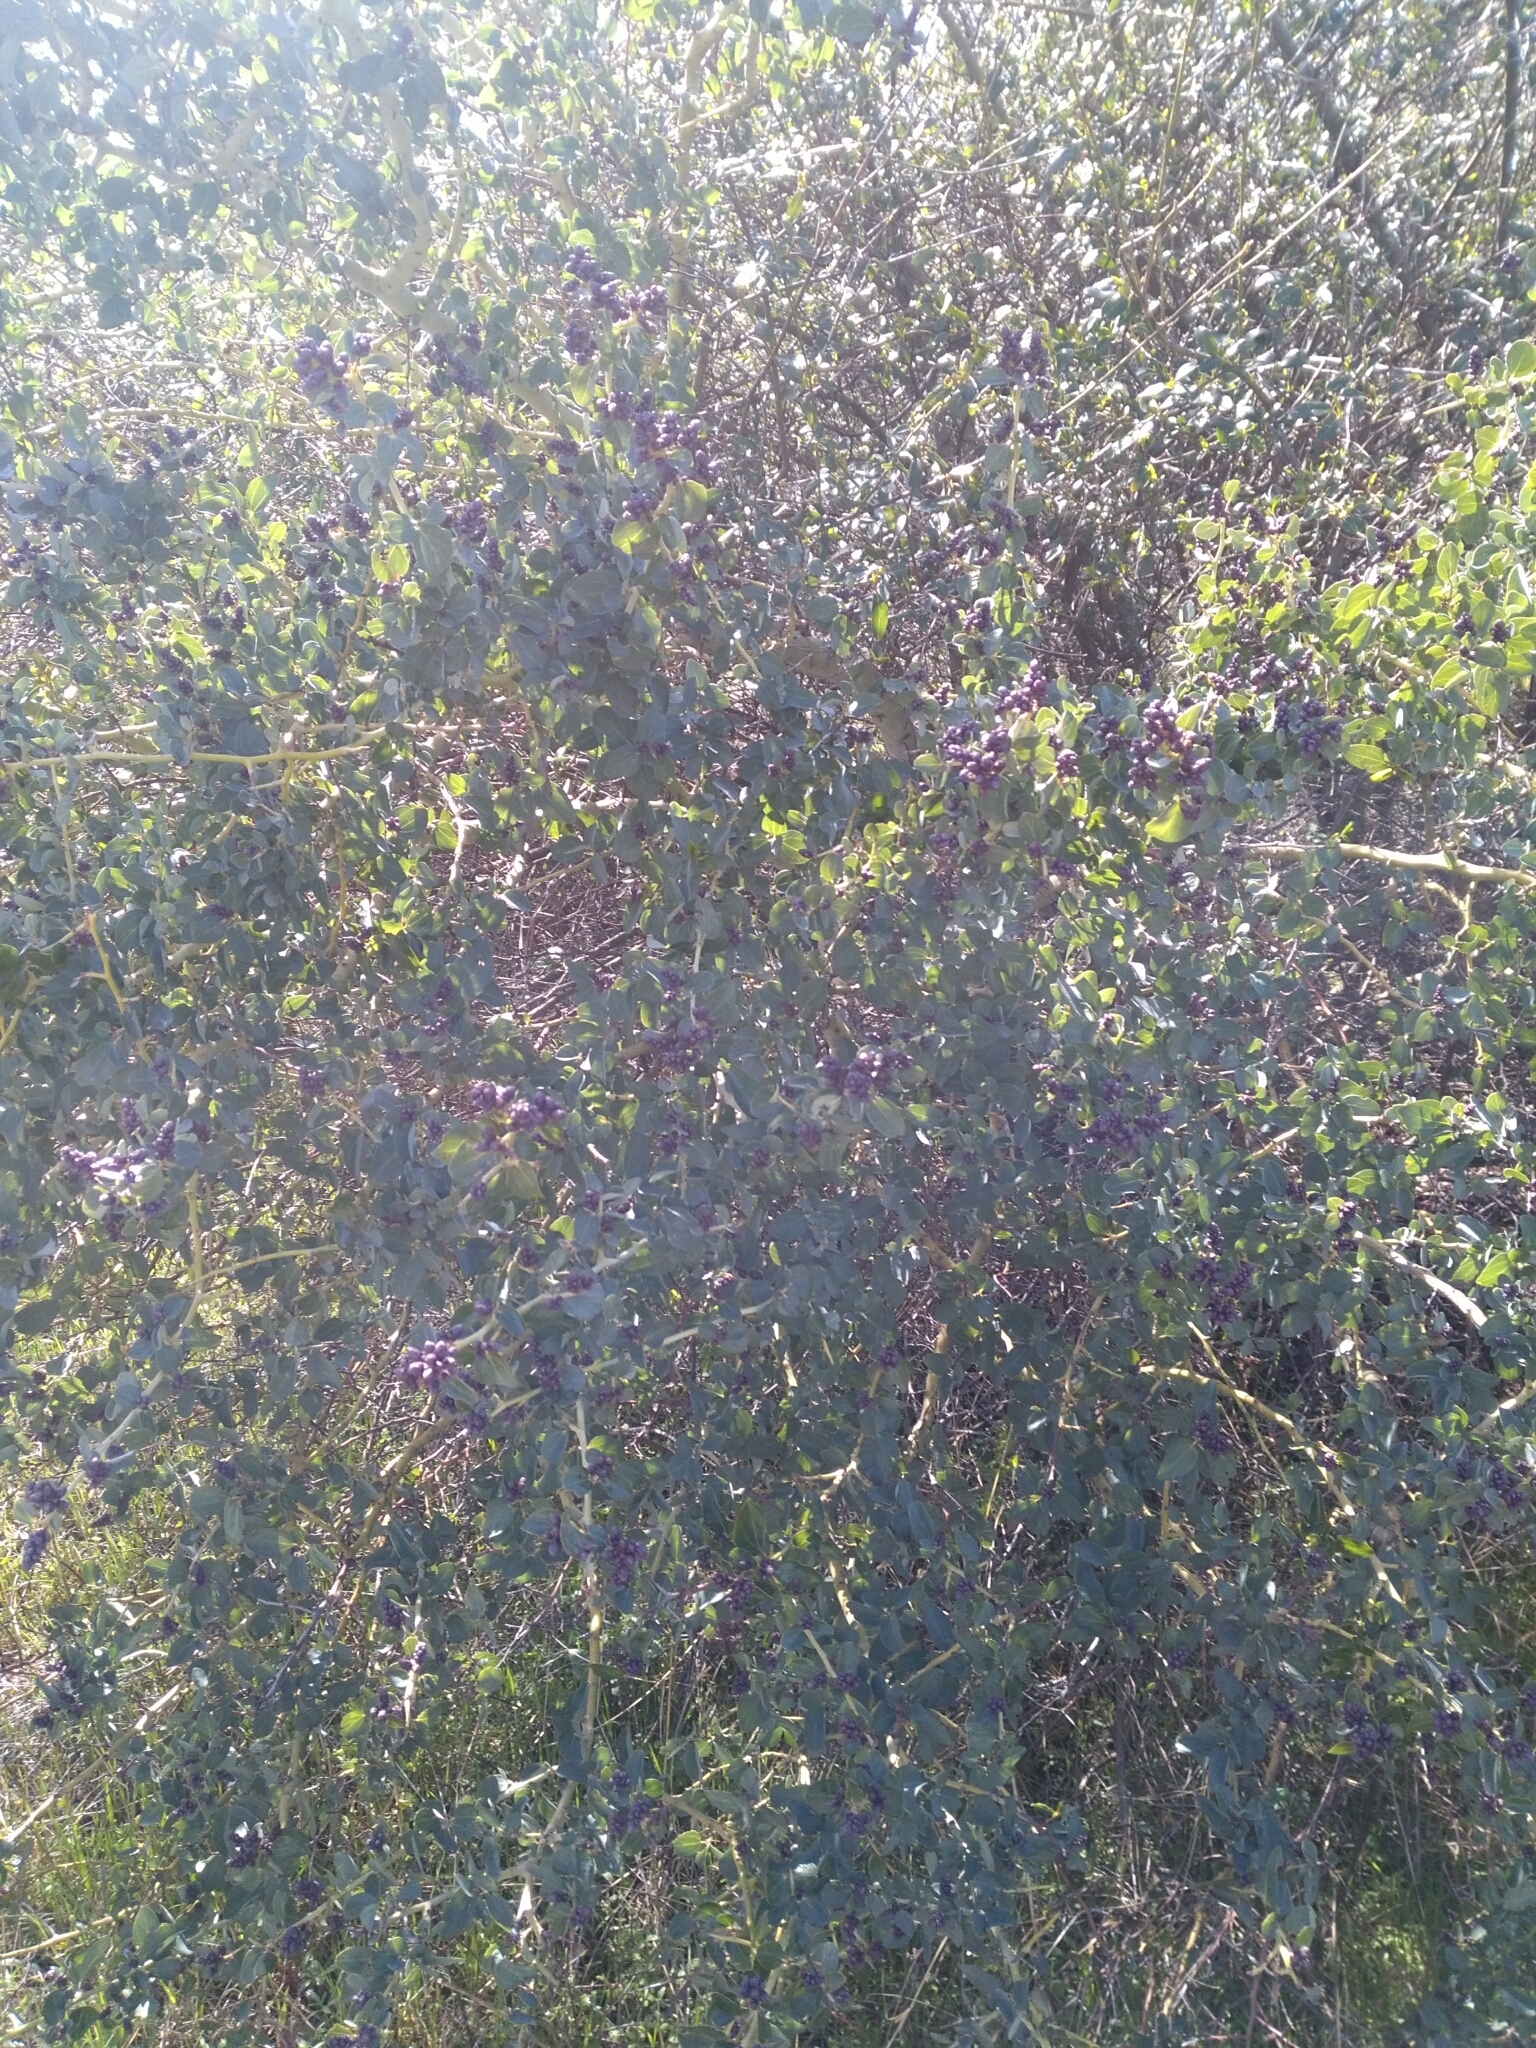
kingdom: Plantae
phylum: Tracheophyta
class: Magnoliopsida
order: Rosales
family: Rhamnaceae
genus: Ceanothus
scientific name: Ceanothus leucodermis
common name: Chaparral whitethorn
